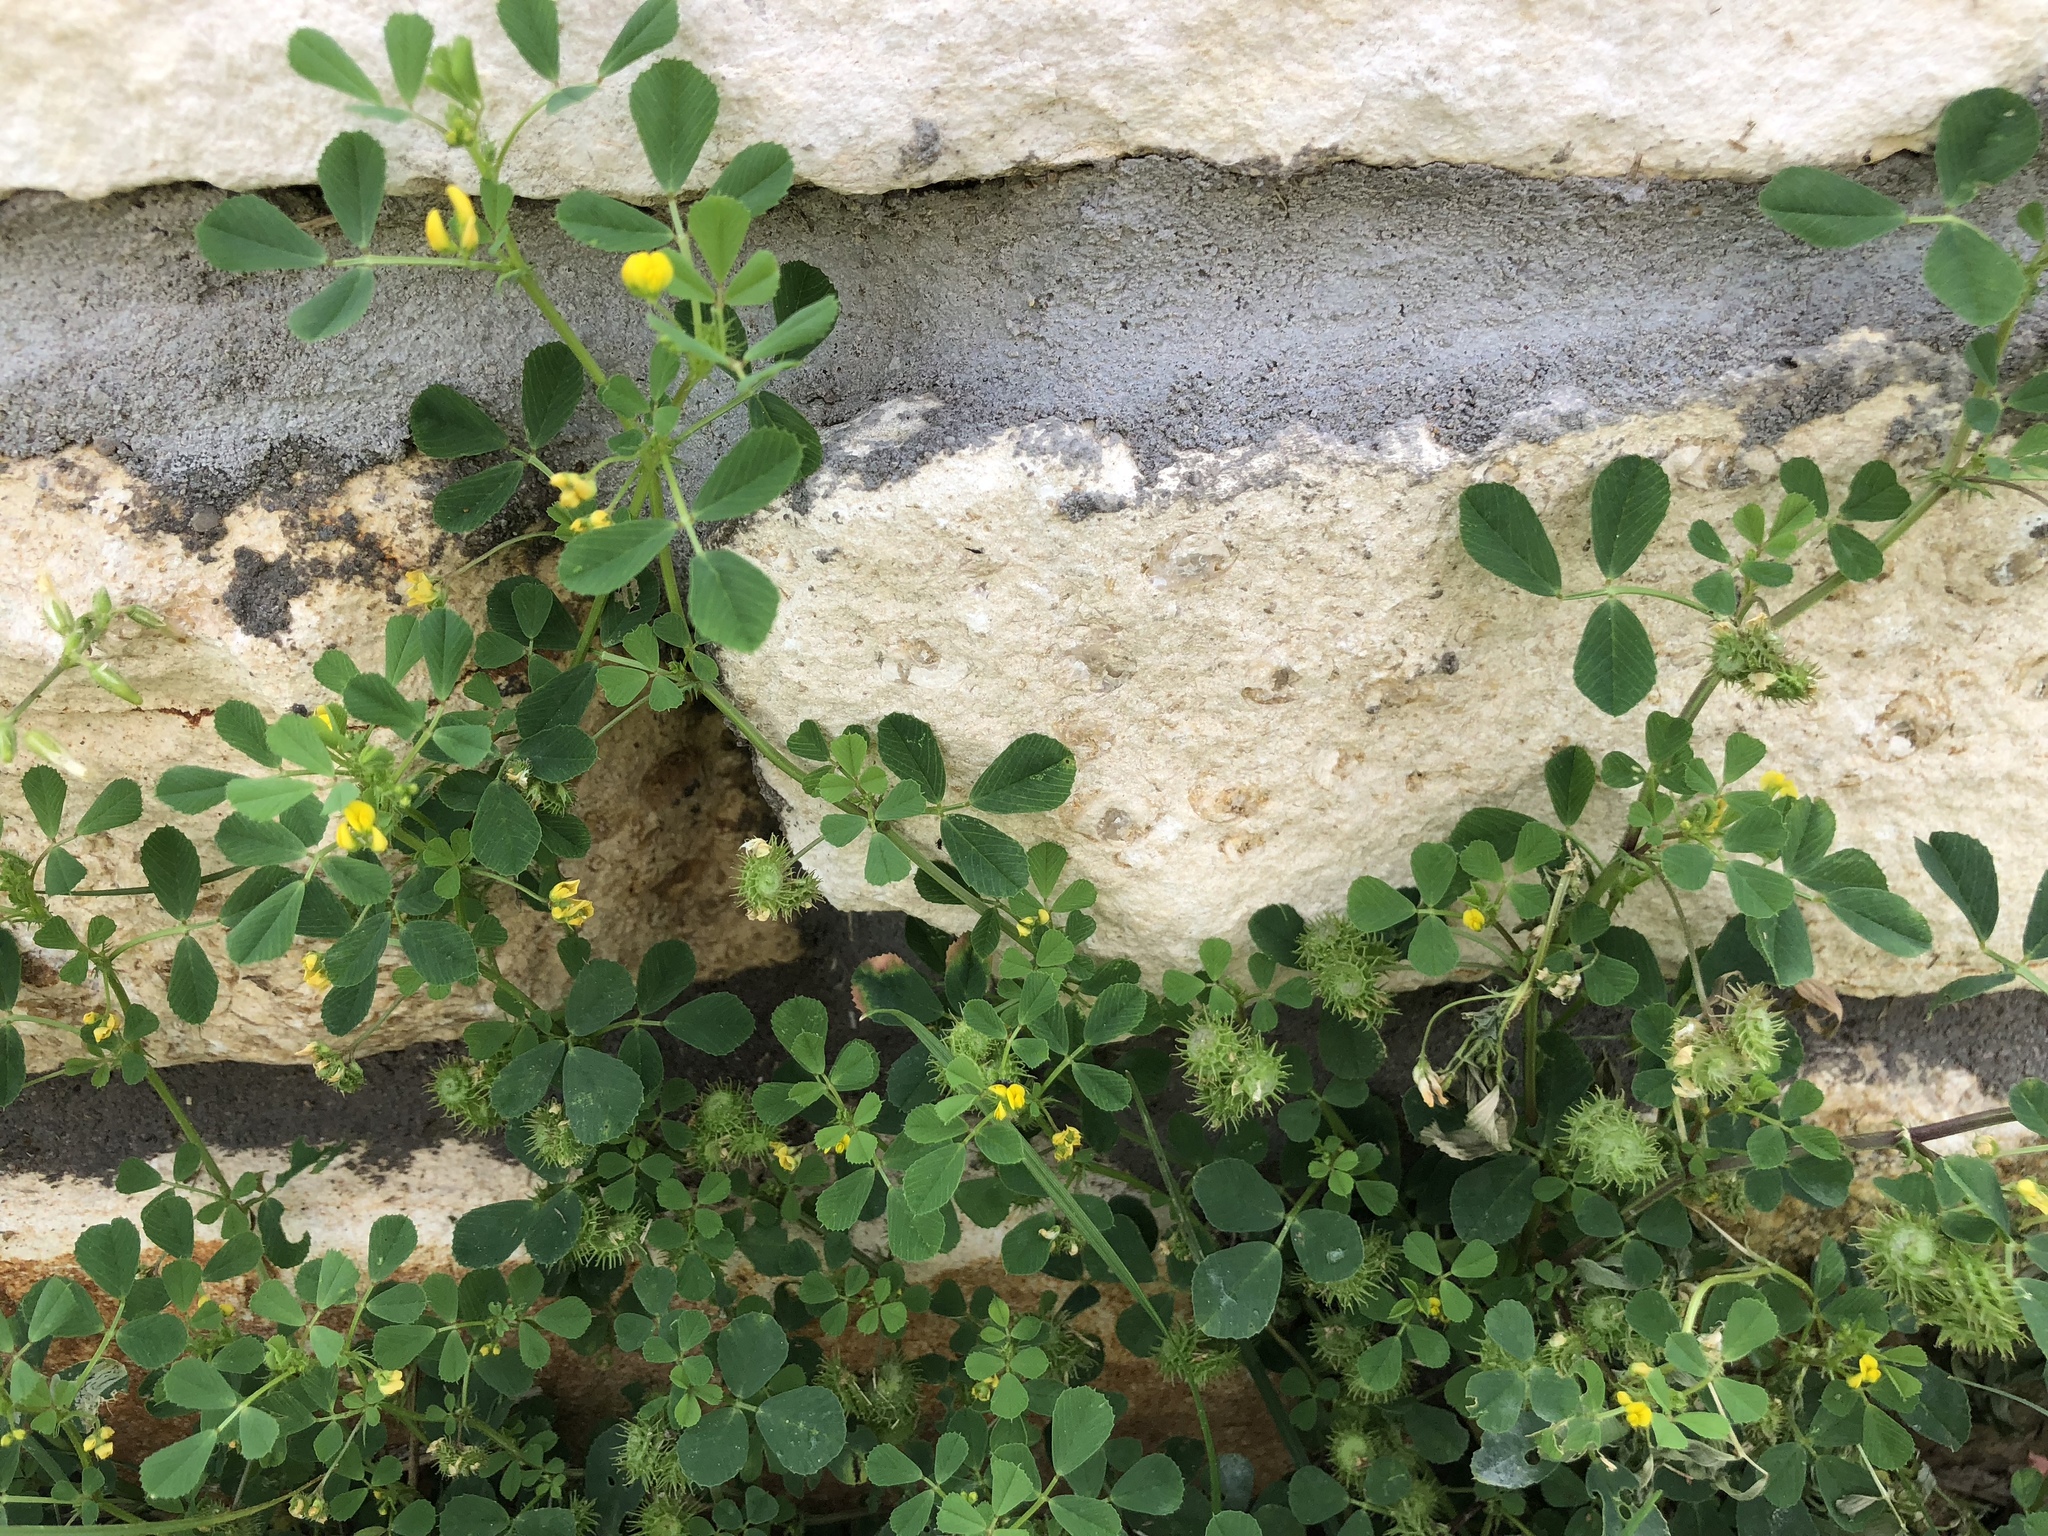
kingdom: Plantae
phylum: Tracheophyta
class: Magnoliopsida
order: Fabales
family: Fabaceae
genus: Medicago
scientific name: Medicago polymorpha
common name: Burclover
